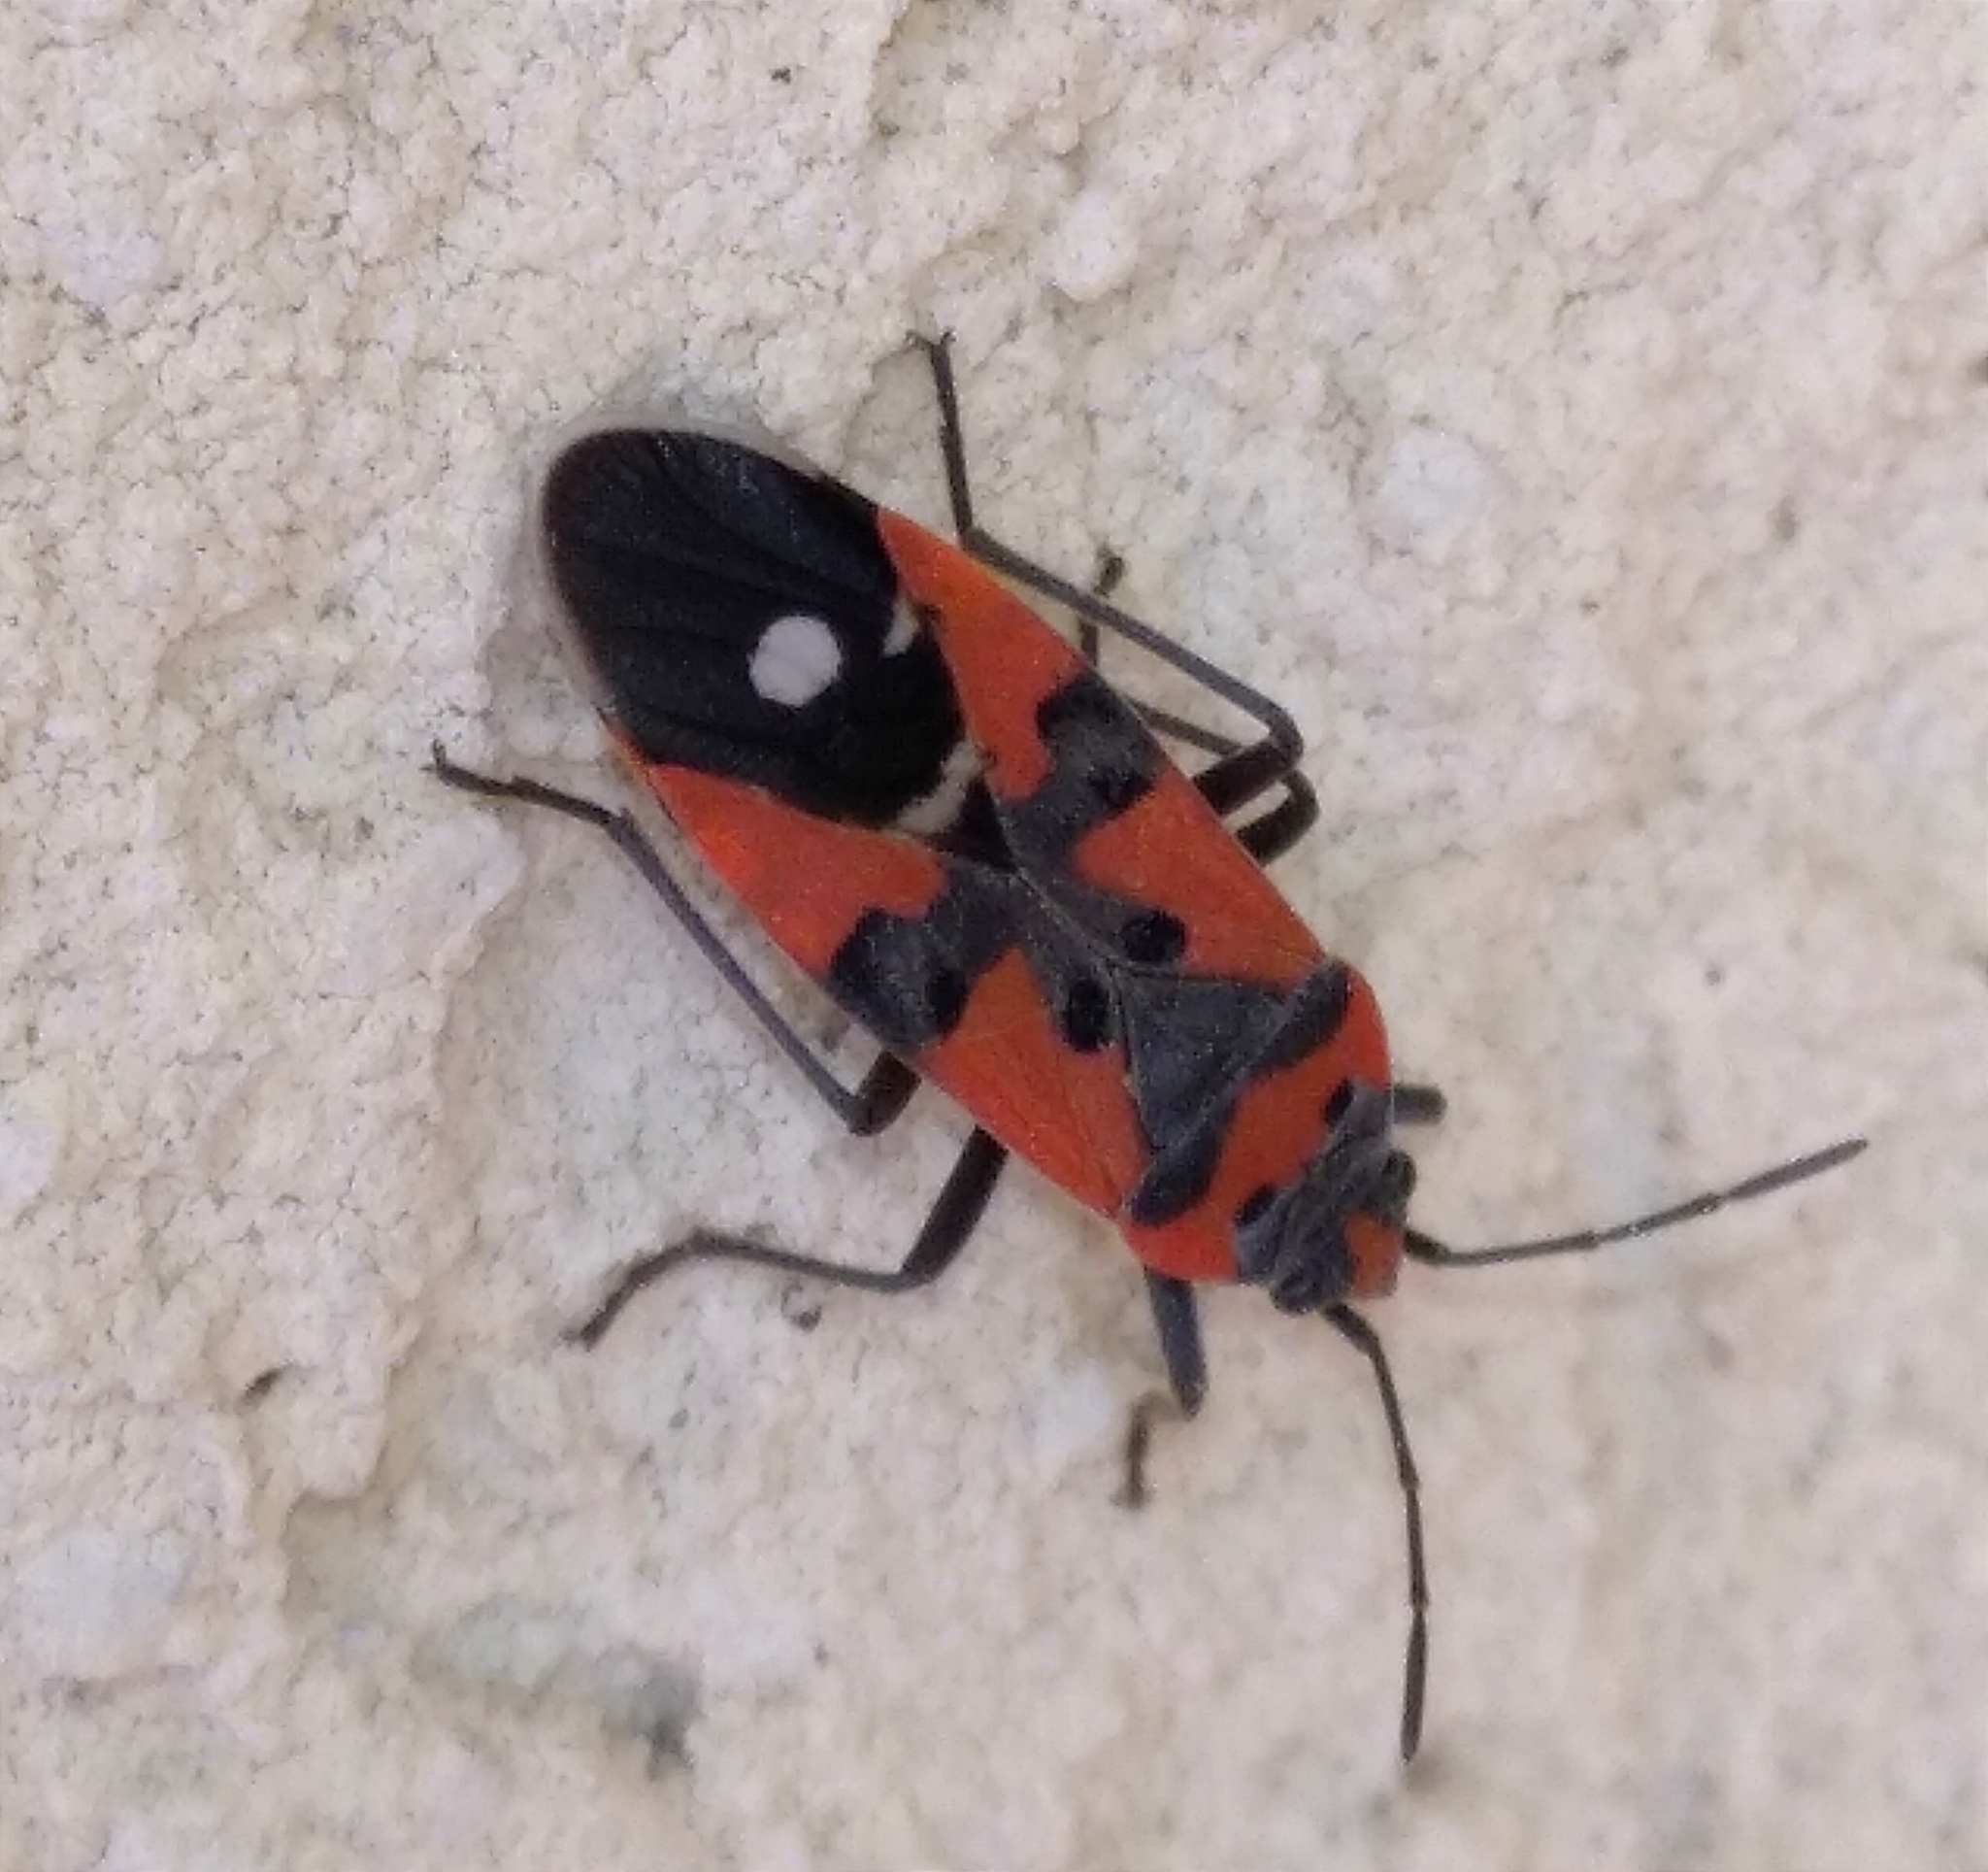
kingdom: Animalia
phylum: Arthropoda
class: Insecta
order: Hemiptera
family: Lygaeidae
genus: Lygaeus
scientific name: Lygaeus equestris
